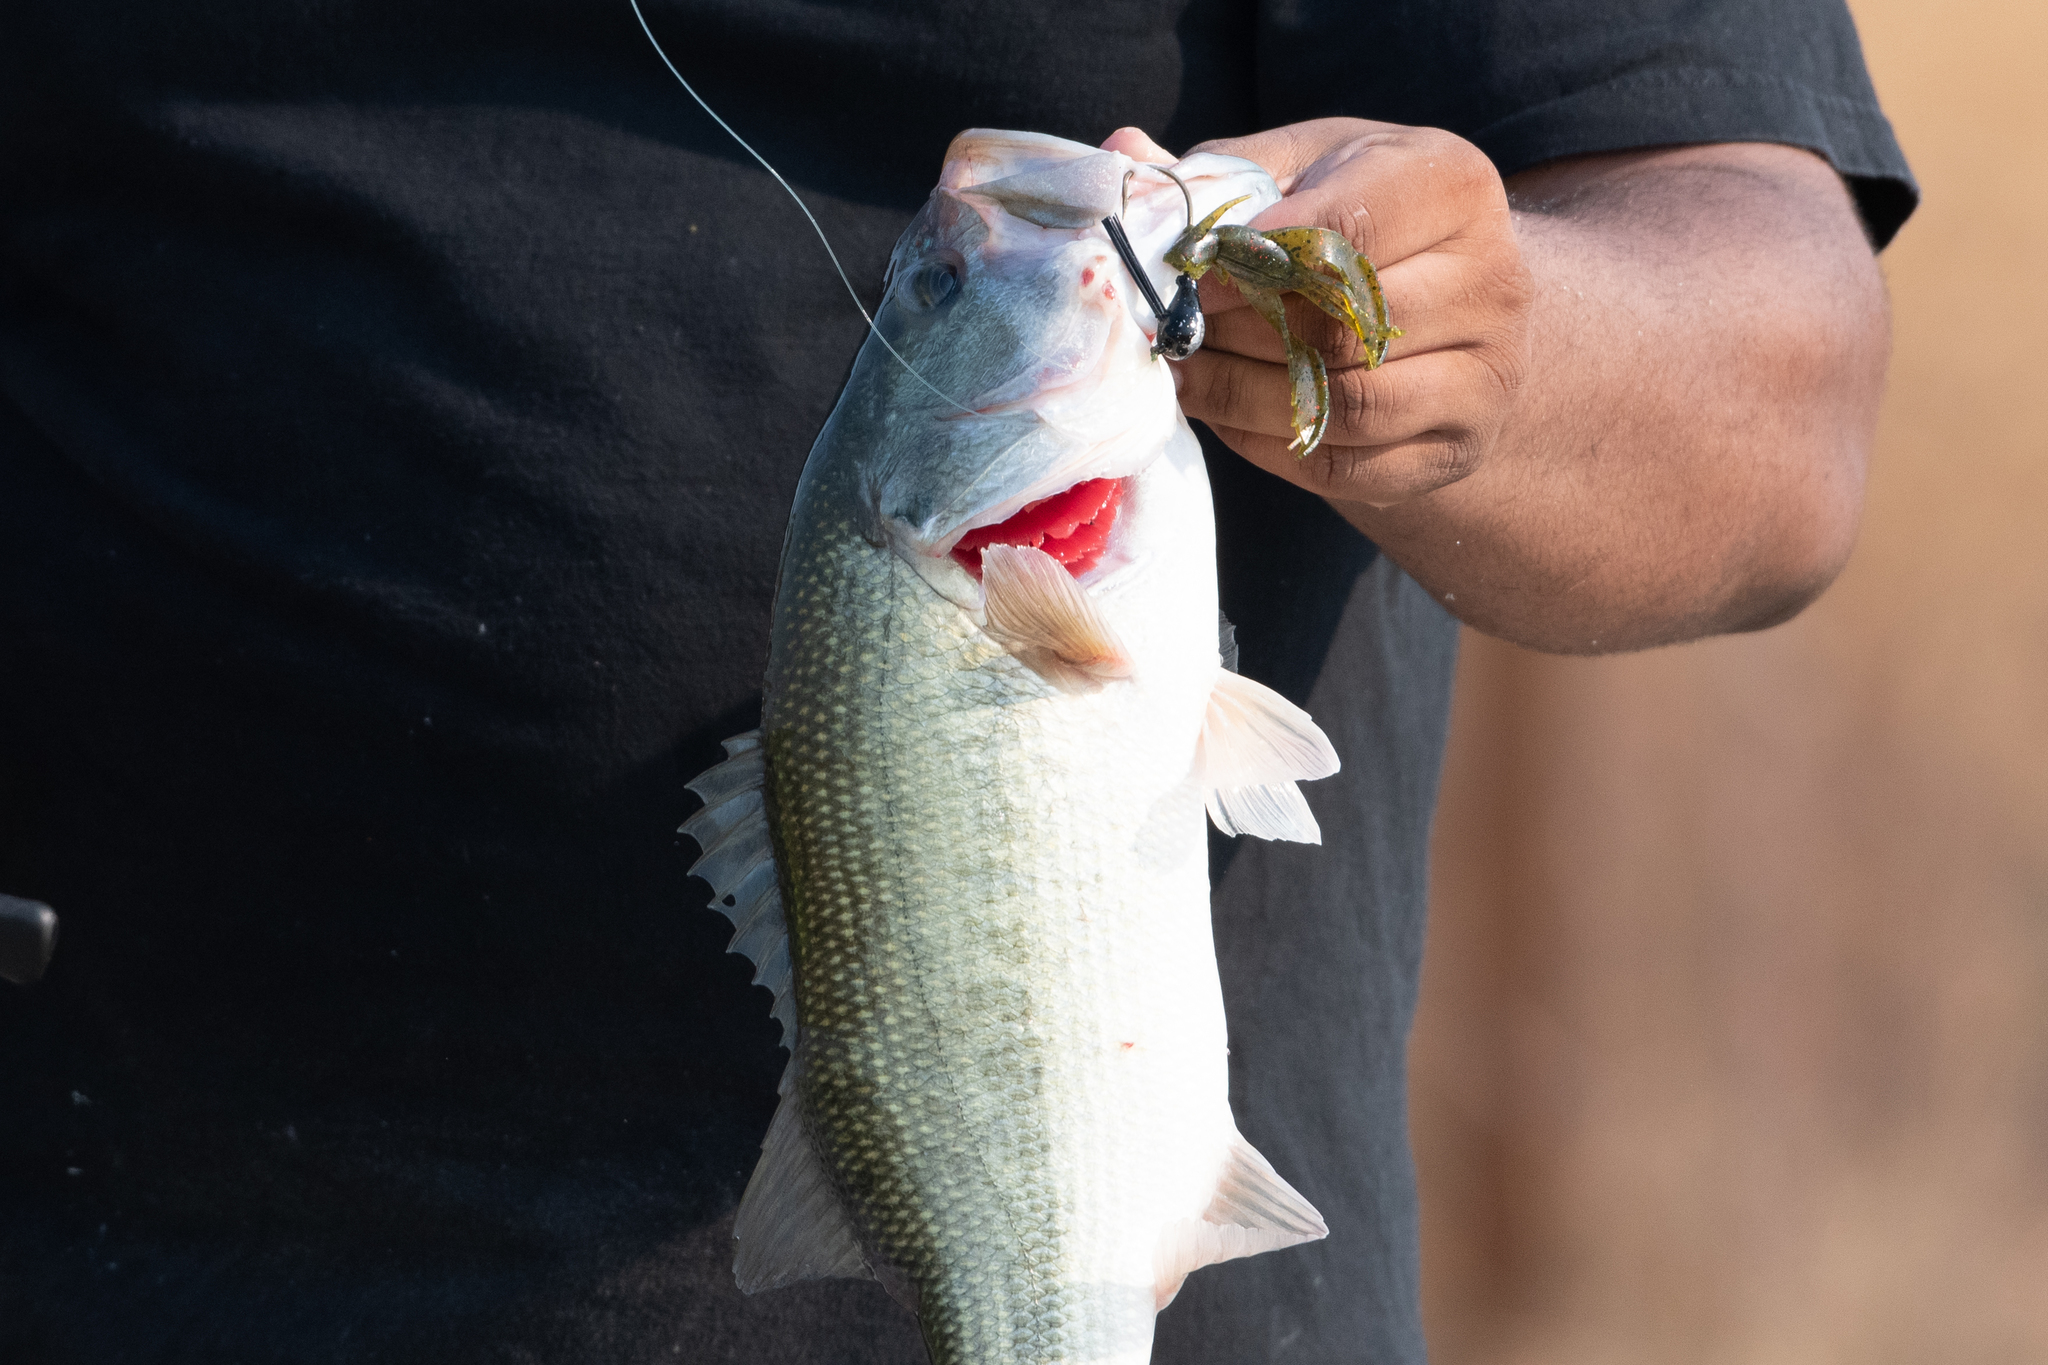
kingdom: Animalia
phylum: Chordata
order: Perciformes
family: Centrarchidae
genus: Micropterus
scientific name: Micropterus
